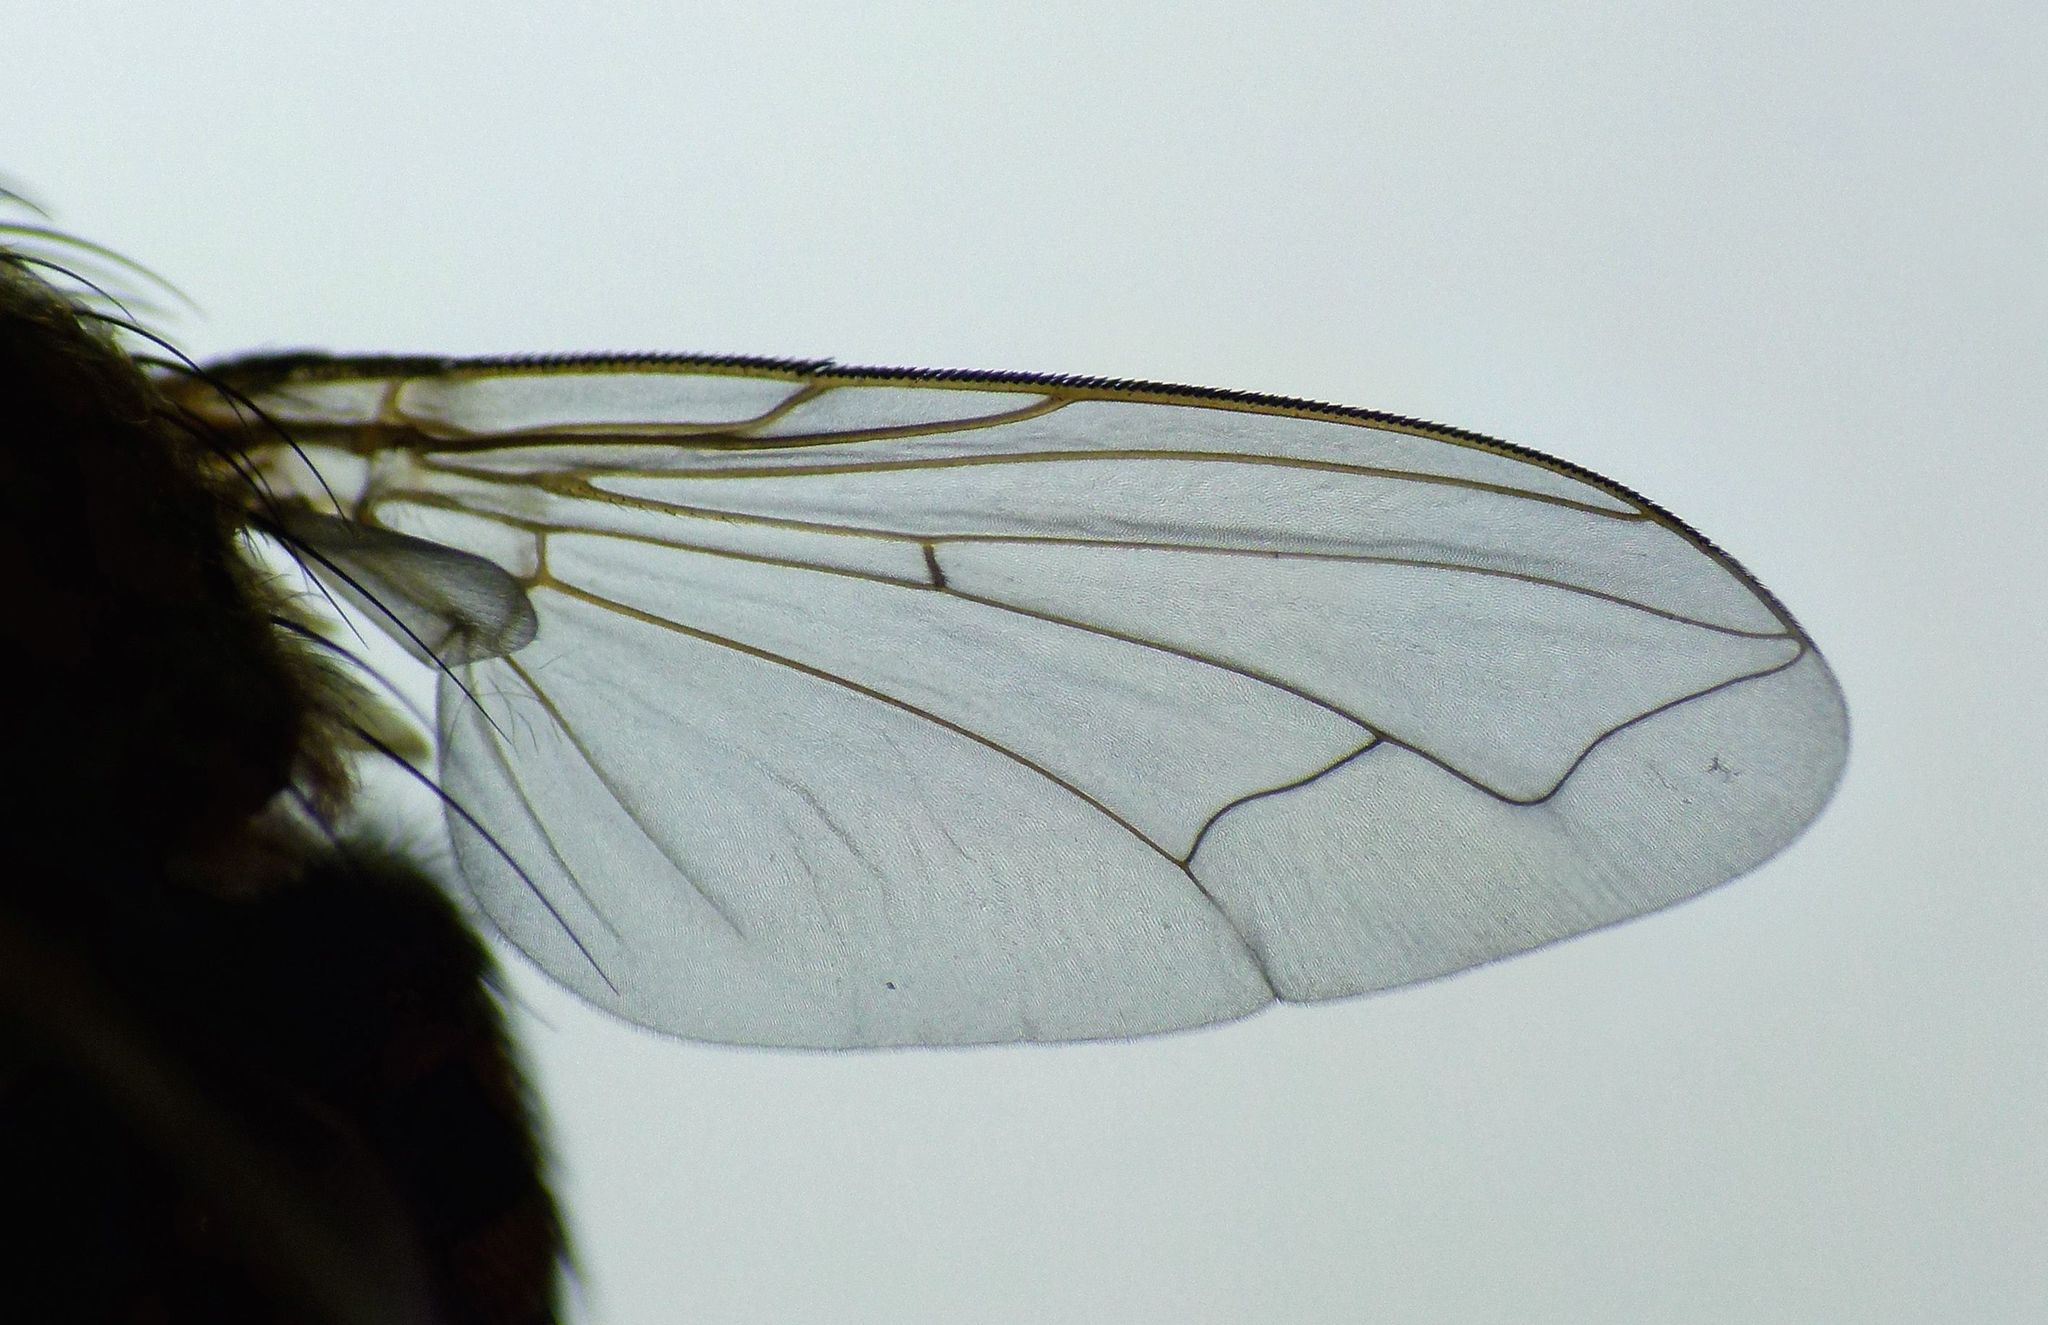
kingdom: Animalia
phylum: Arthropoda
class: Insecta
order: Diptera
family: Polleniidae
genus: Pollenia
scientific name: Pollenia pediculata
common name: Tufted clusterfly
